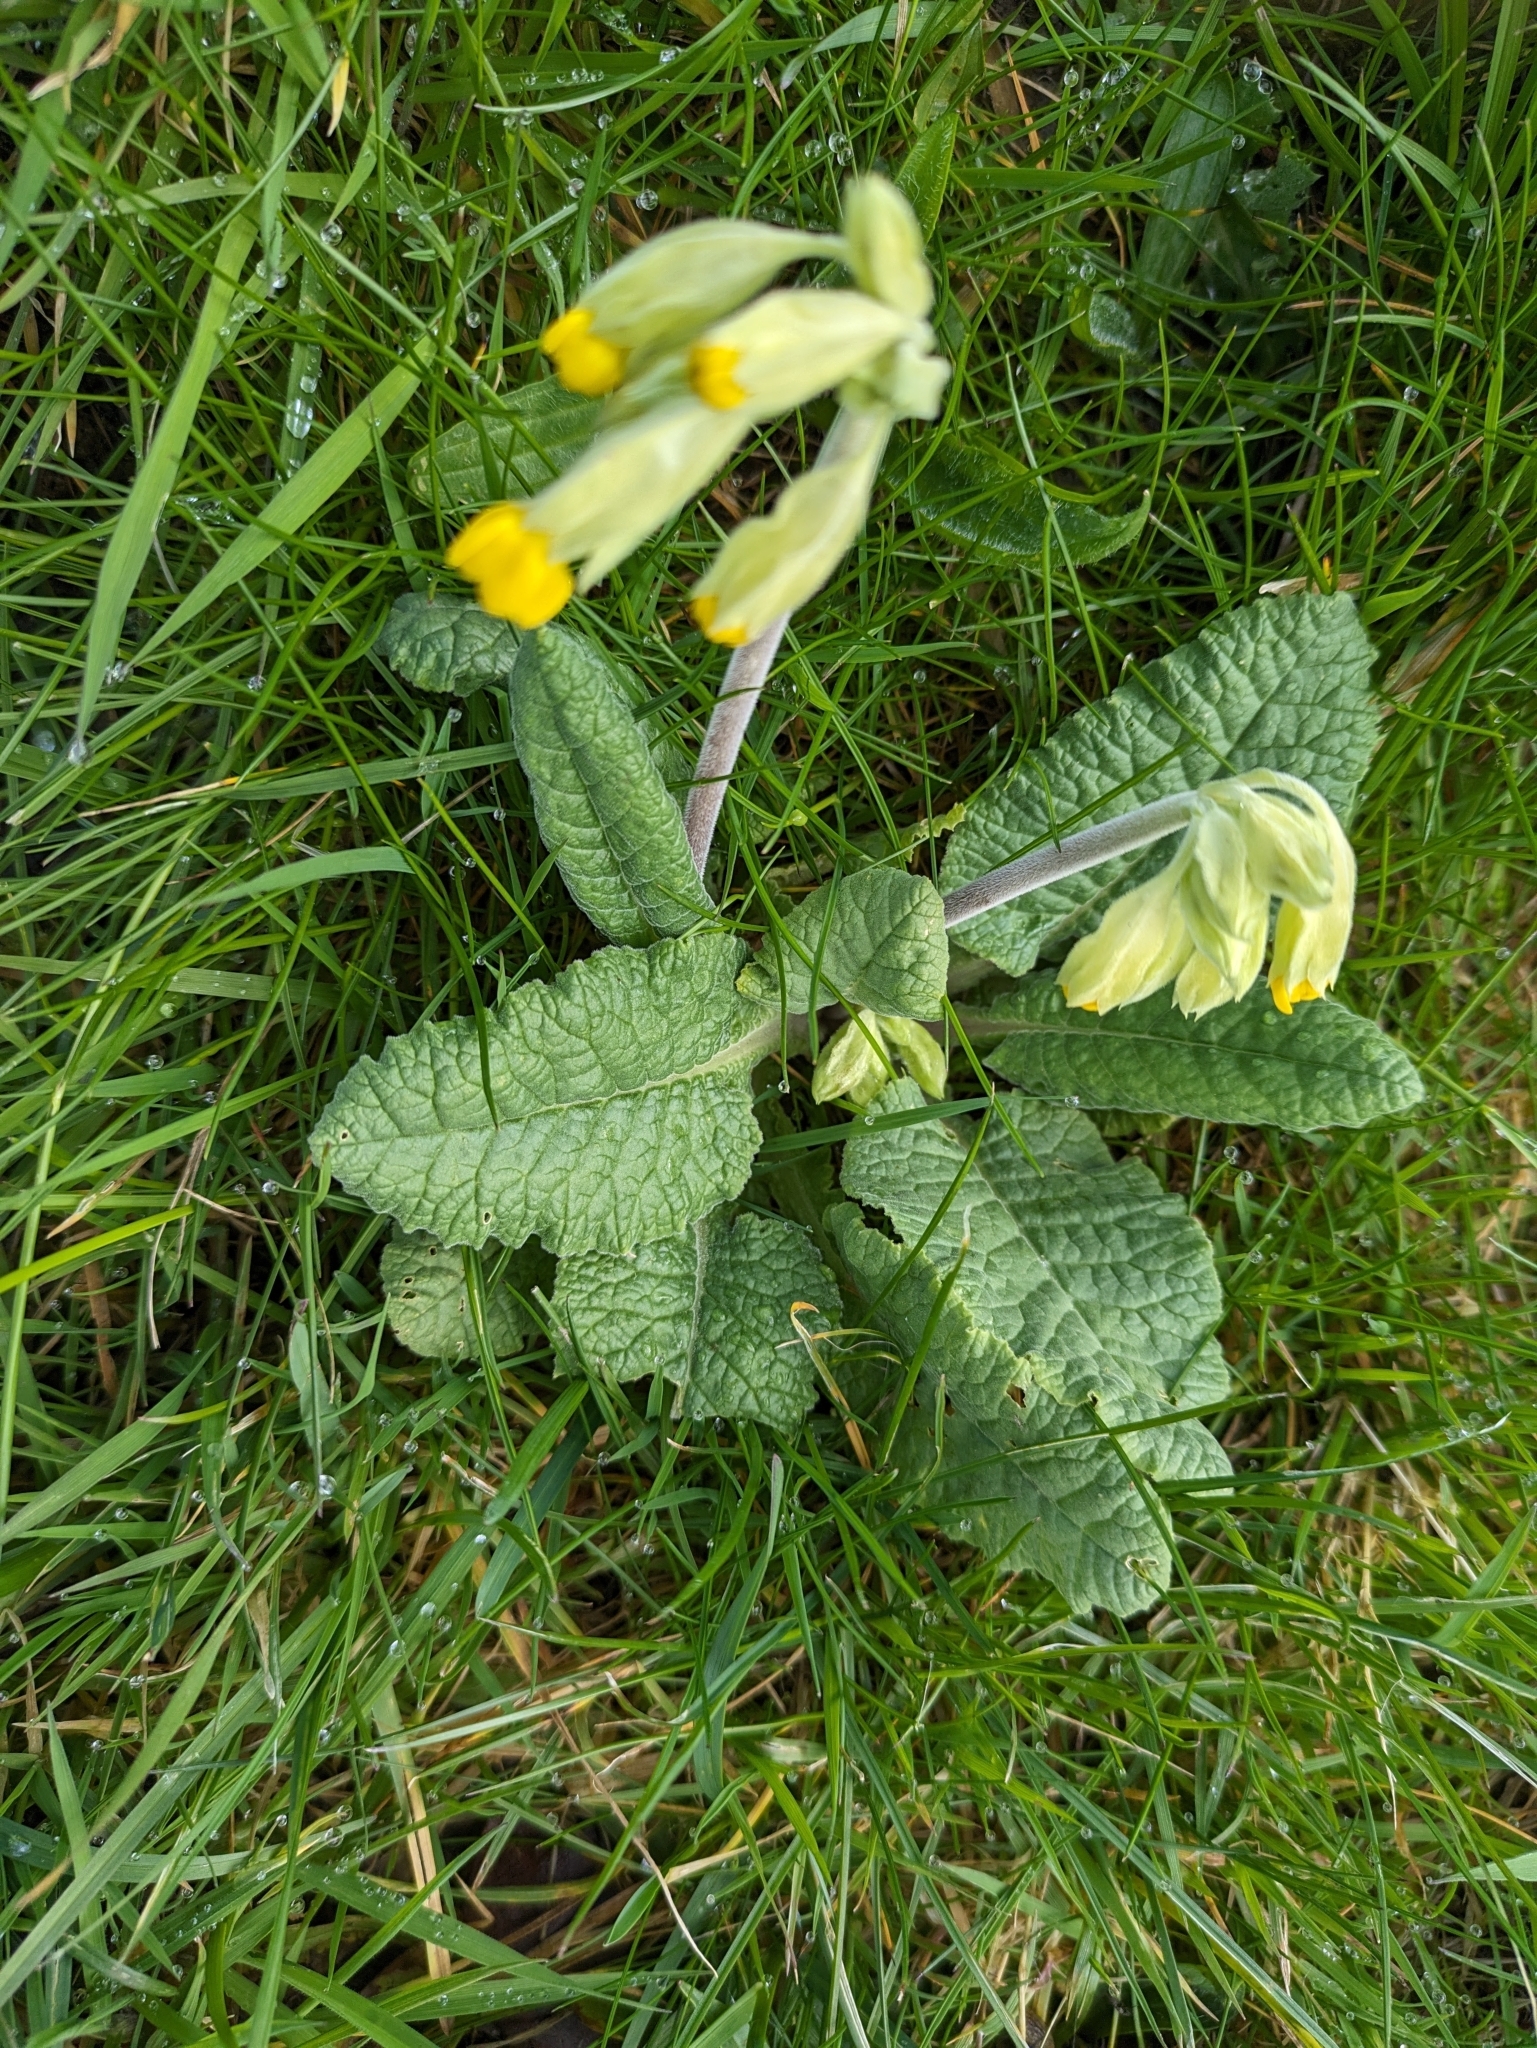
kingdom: Plantae
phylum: Tracheophyta
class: Magnoliopsida
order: Ericales
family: Primulaceae
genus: Primula
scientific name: Primula veris
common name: Cowslip
